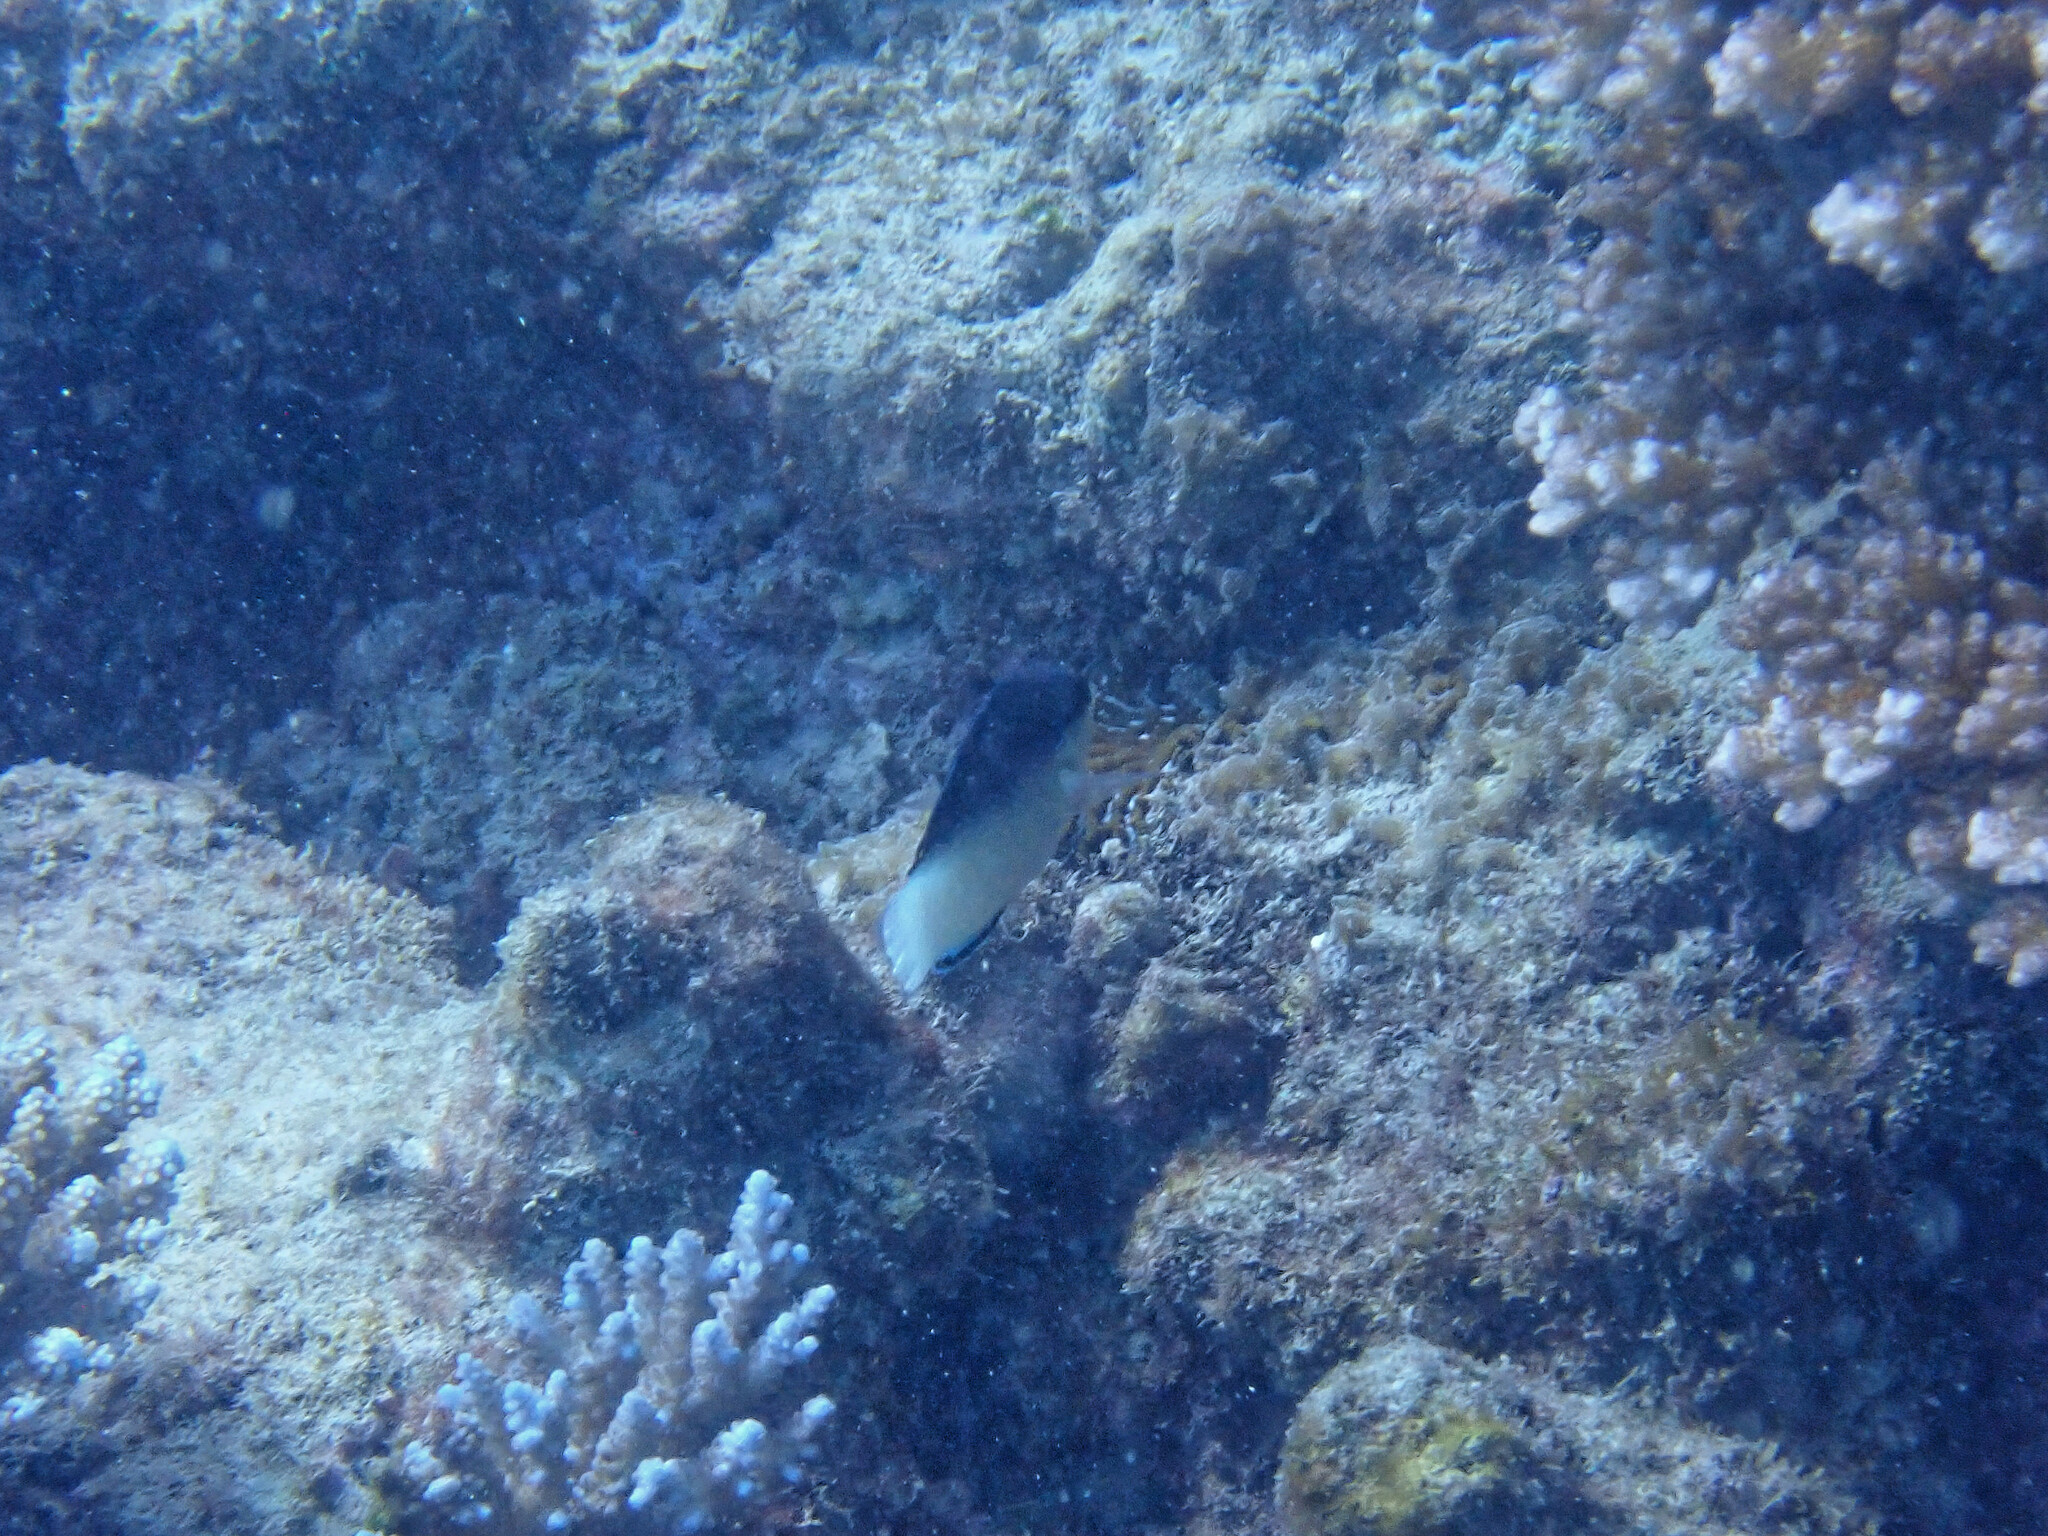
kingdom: Animalia
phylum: Chordata
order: Perciformes
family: Labridae
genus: Anampses
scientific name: Anampses neoguinaicus
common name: New guinea wrasse
